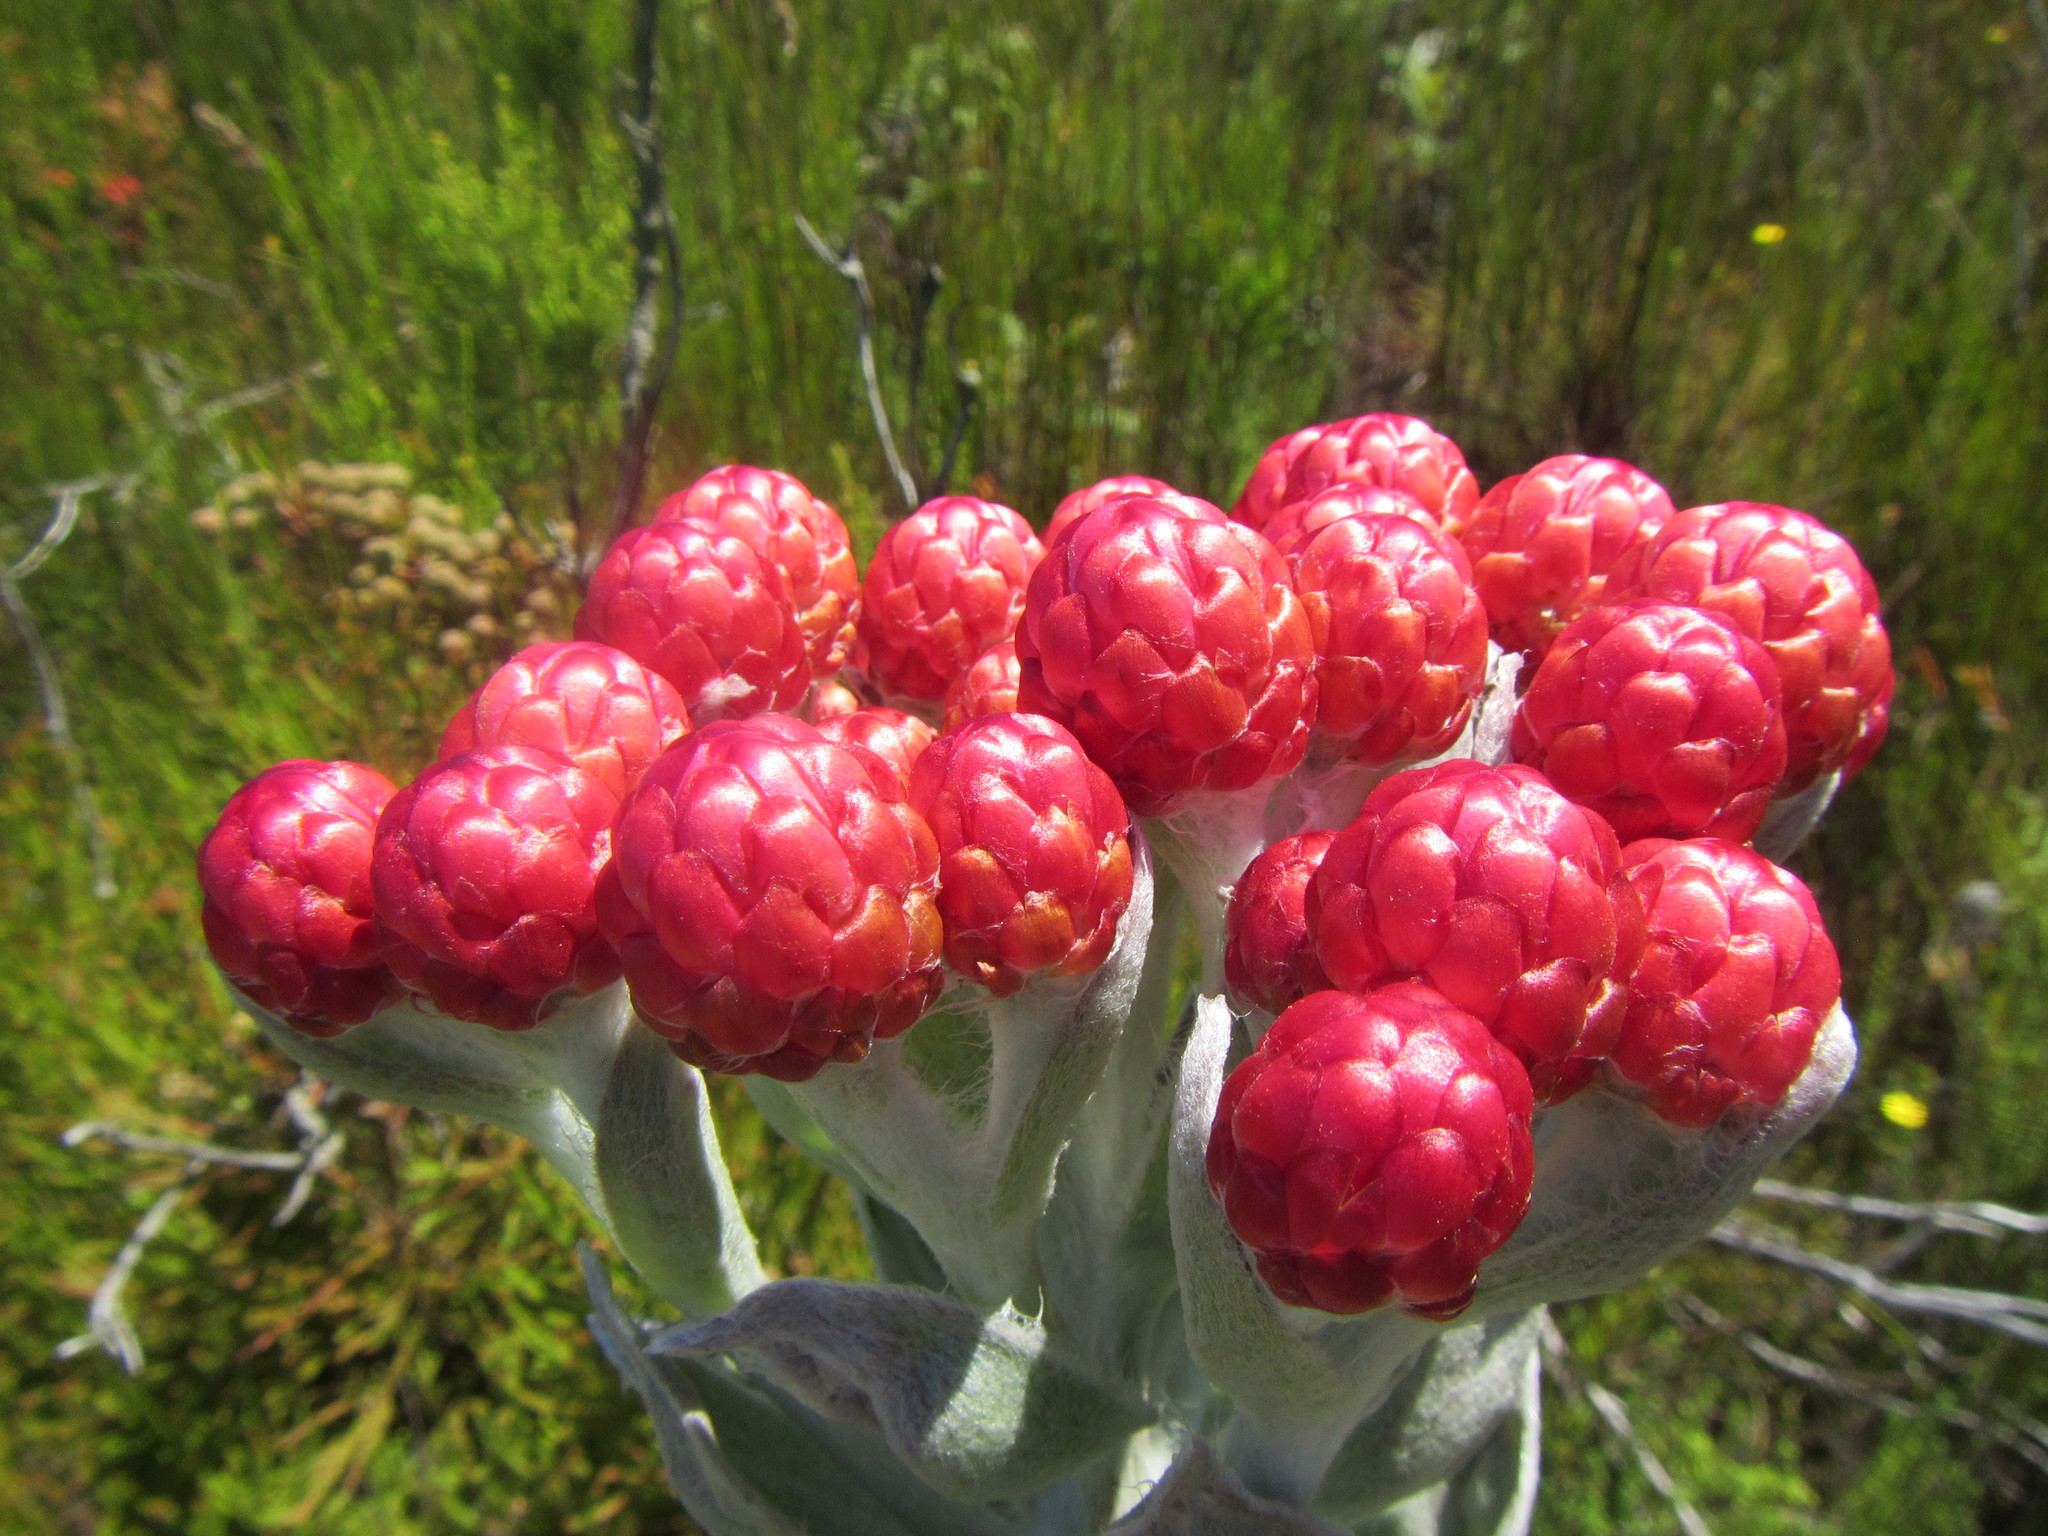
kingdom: Plantae
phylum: Tracheophyta
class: Magnoliopsida
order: Asterales
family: Asteraceae
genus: Syncarpha
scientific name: Syncarpha eximia
